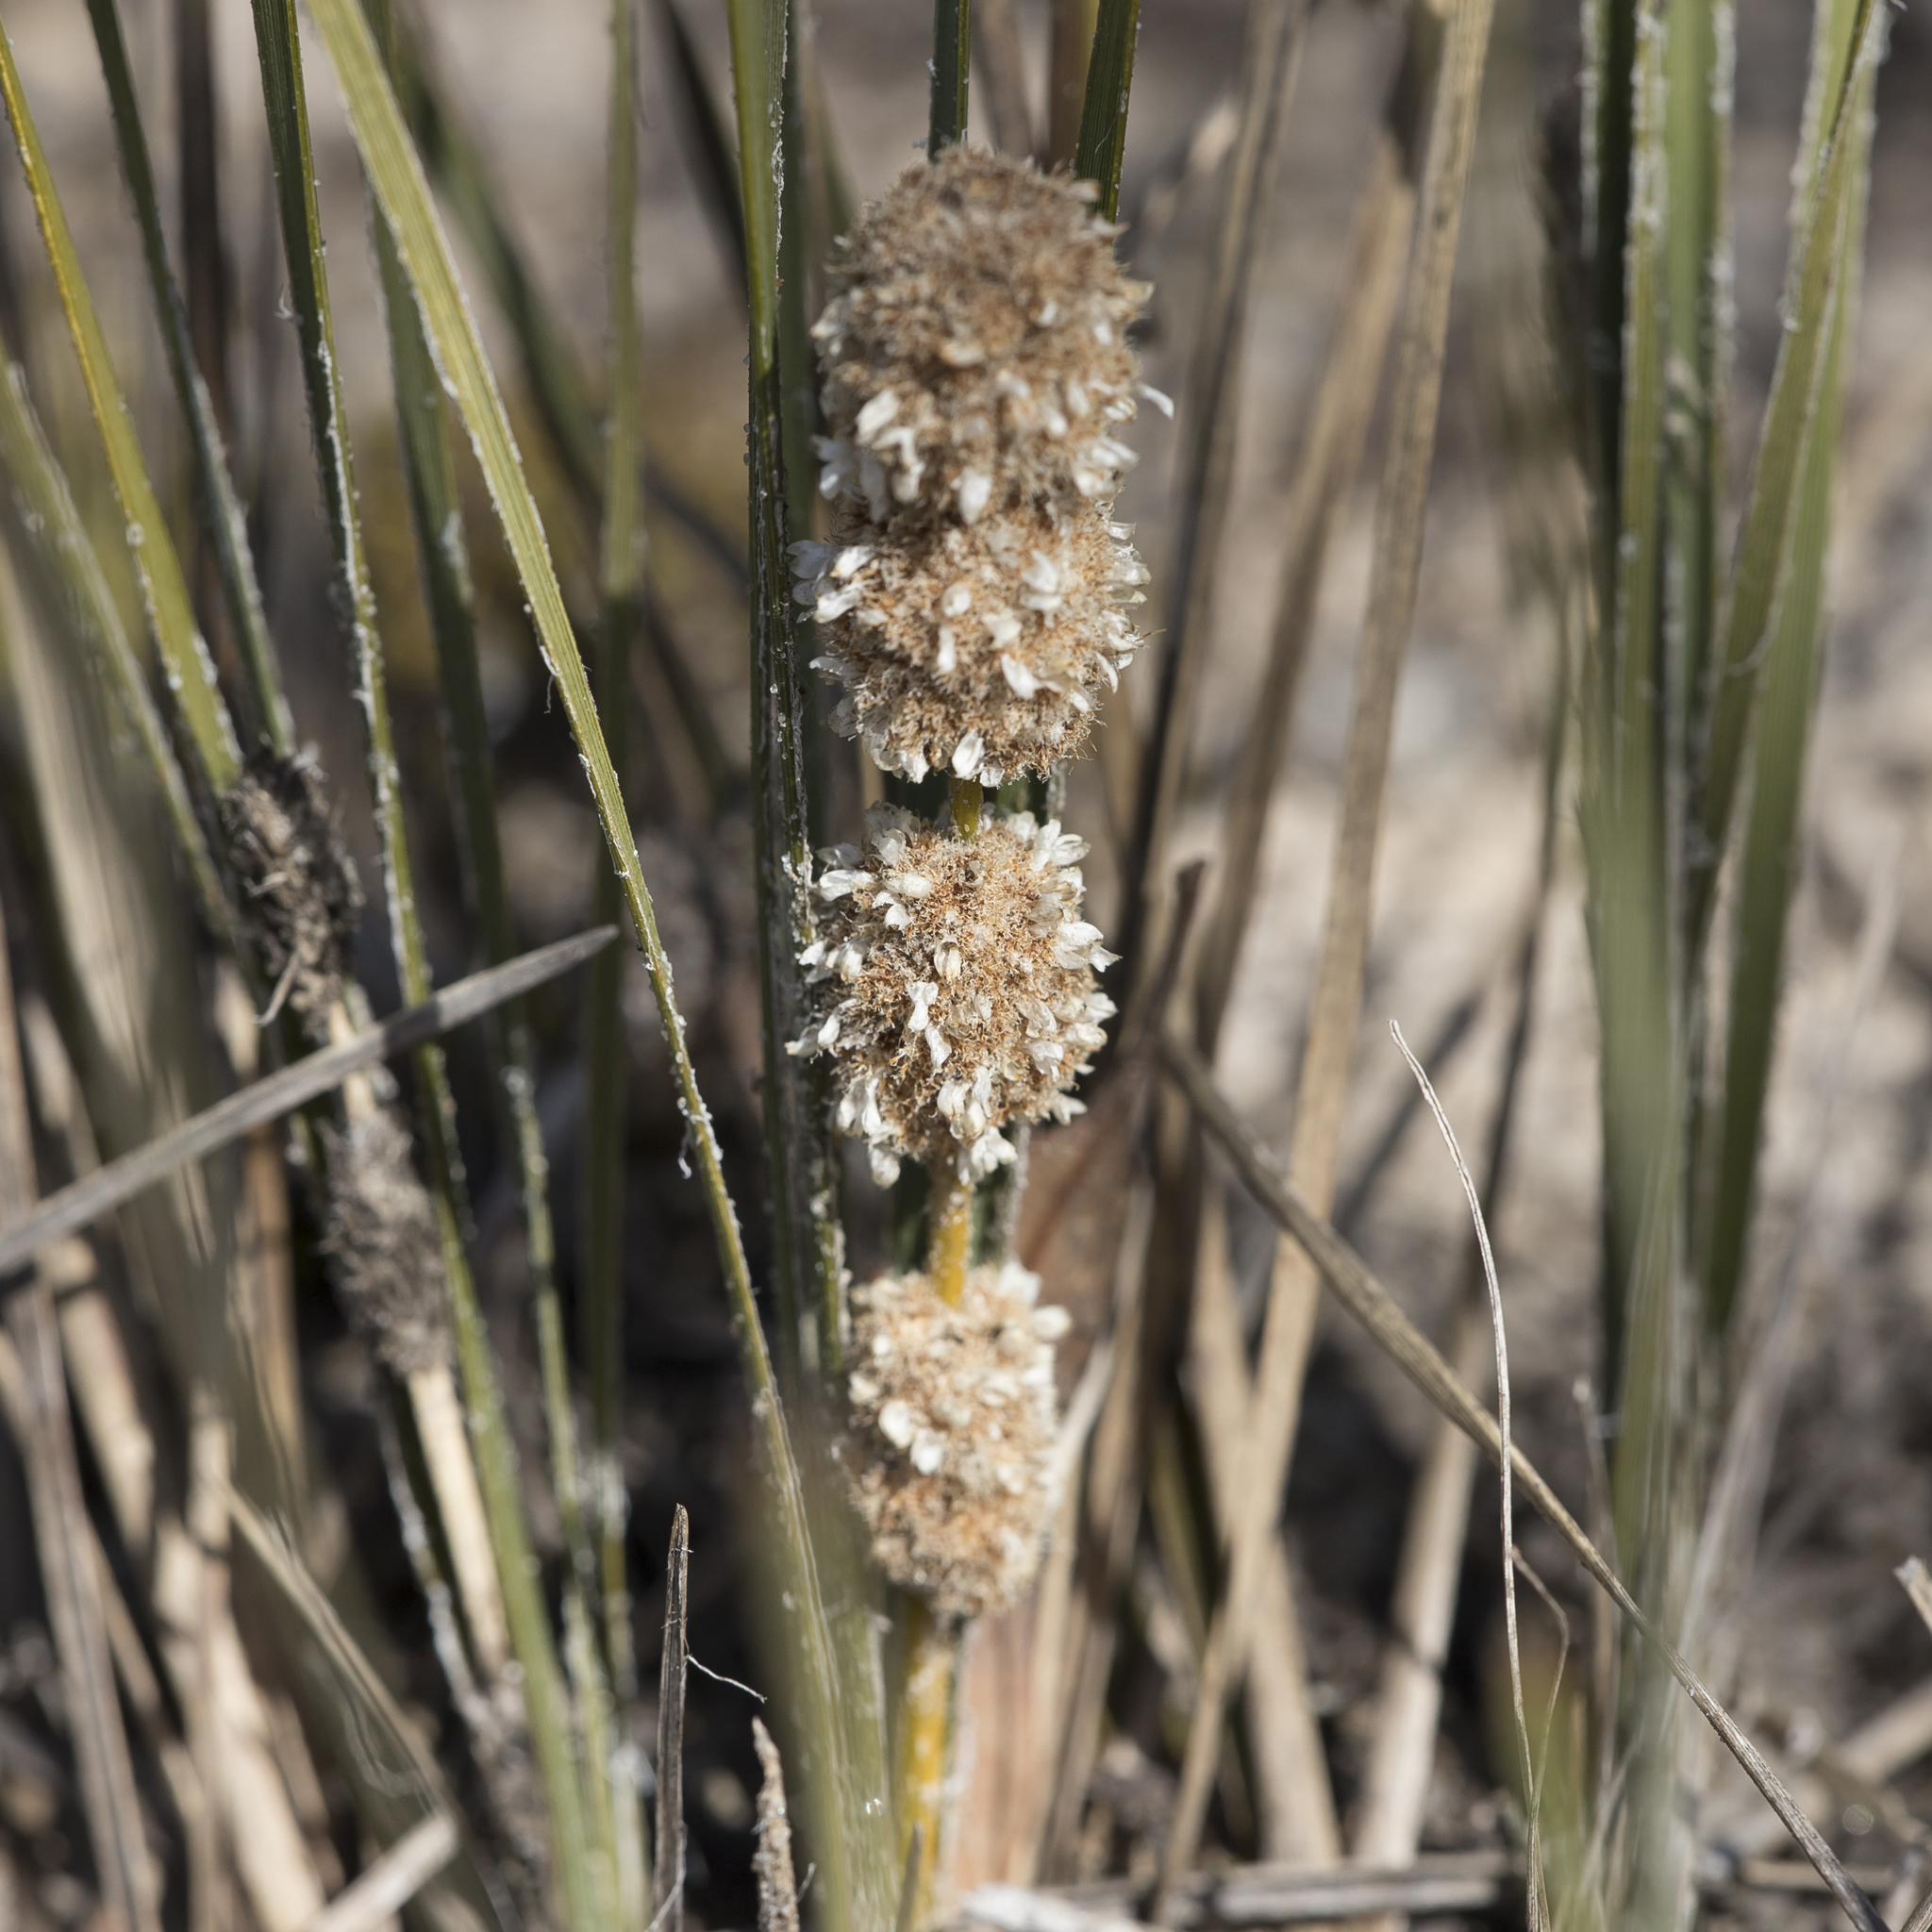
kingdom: Plantae
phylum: Tracheophyta
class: Liliopsida
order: Asparagales
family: Asparagaceae
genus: Lomandra
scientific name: Lomandra leucocephala
